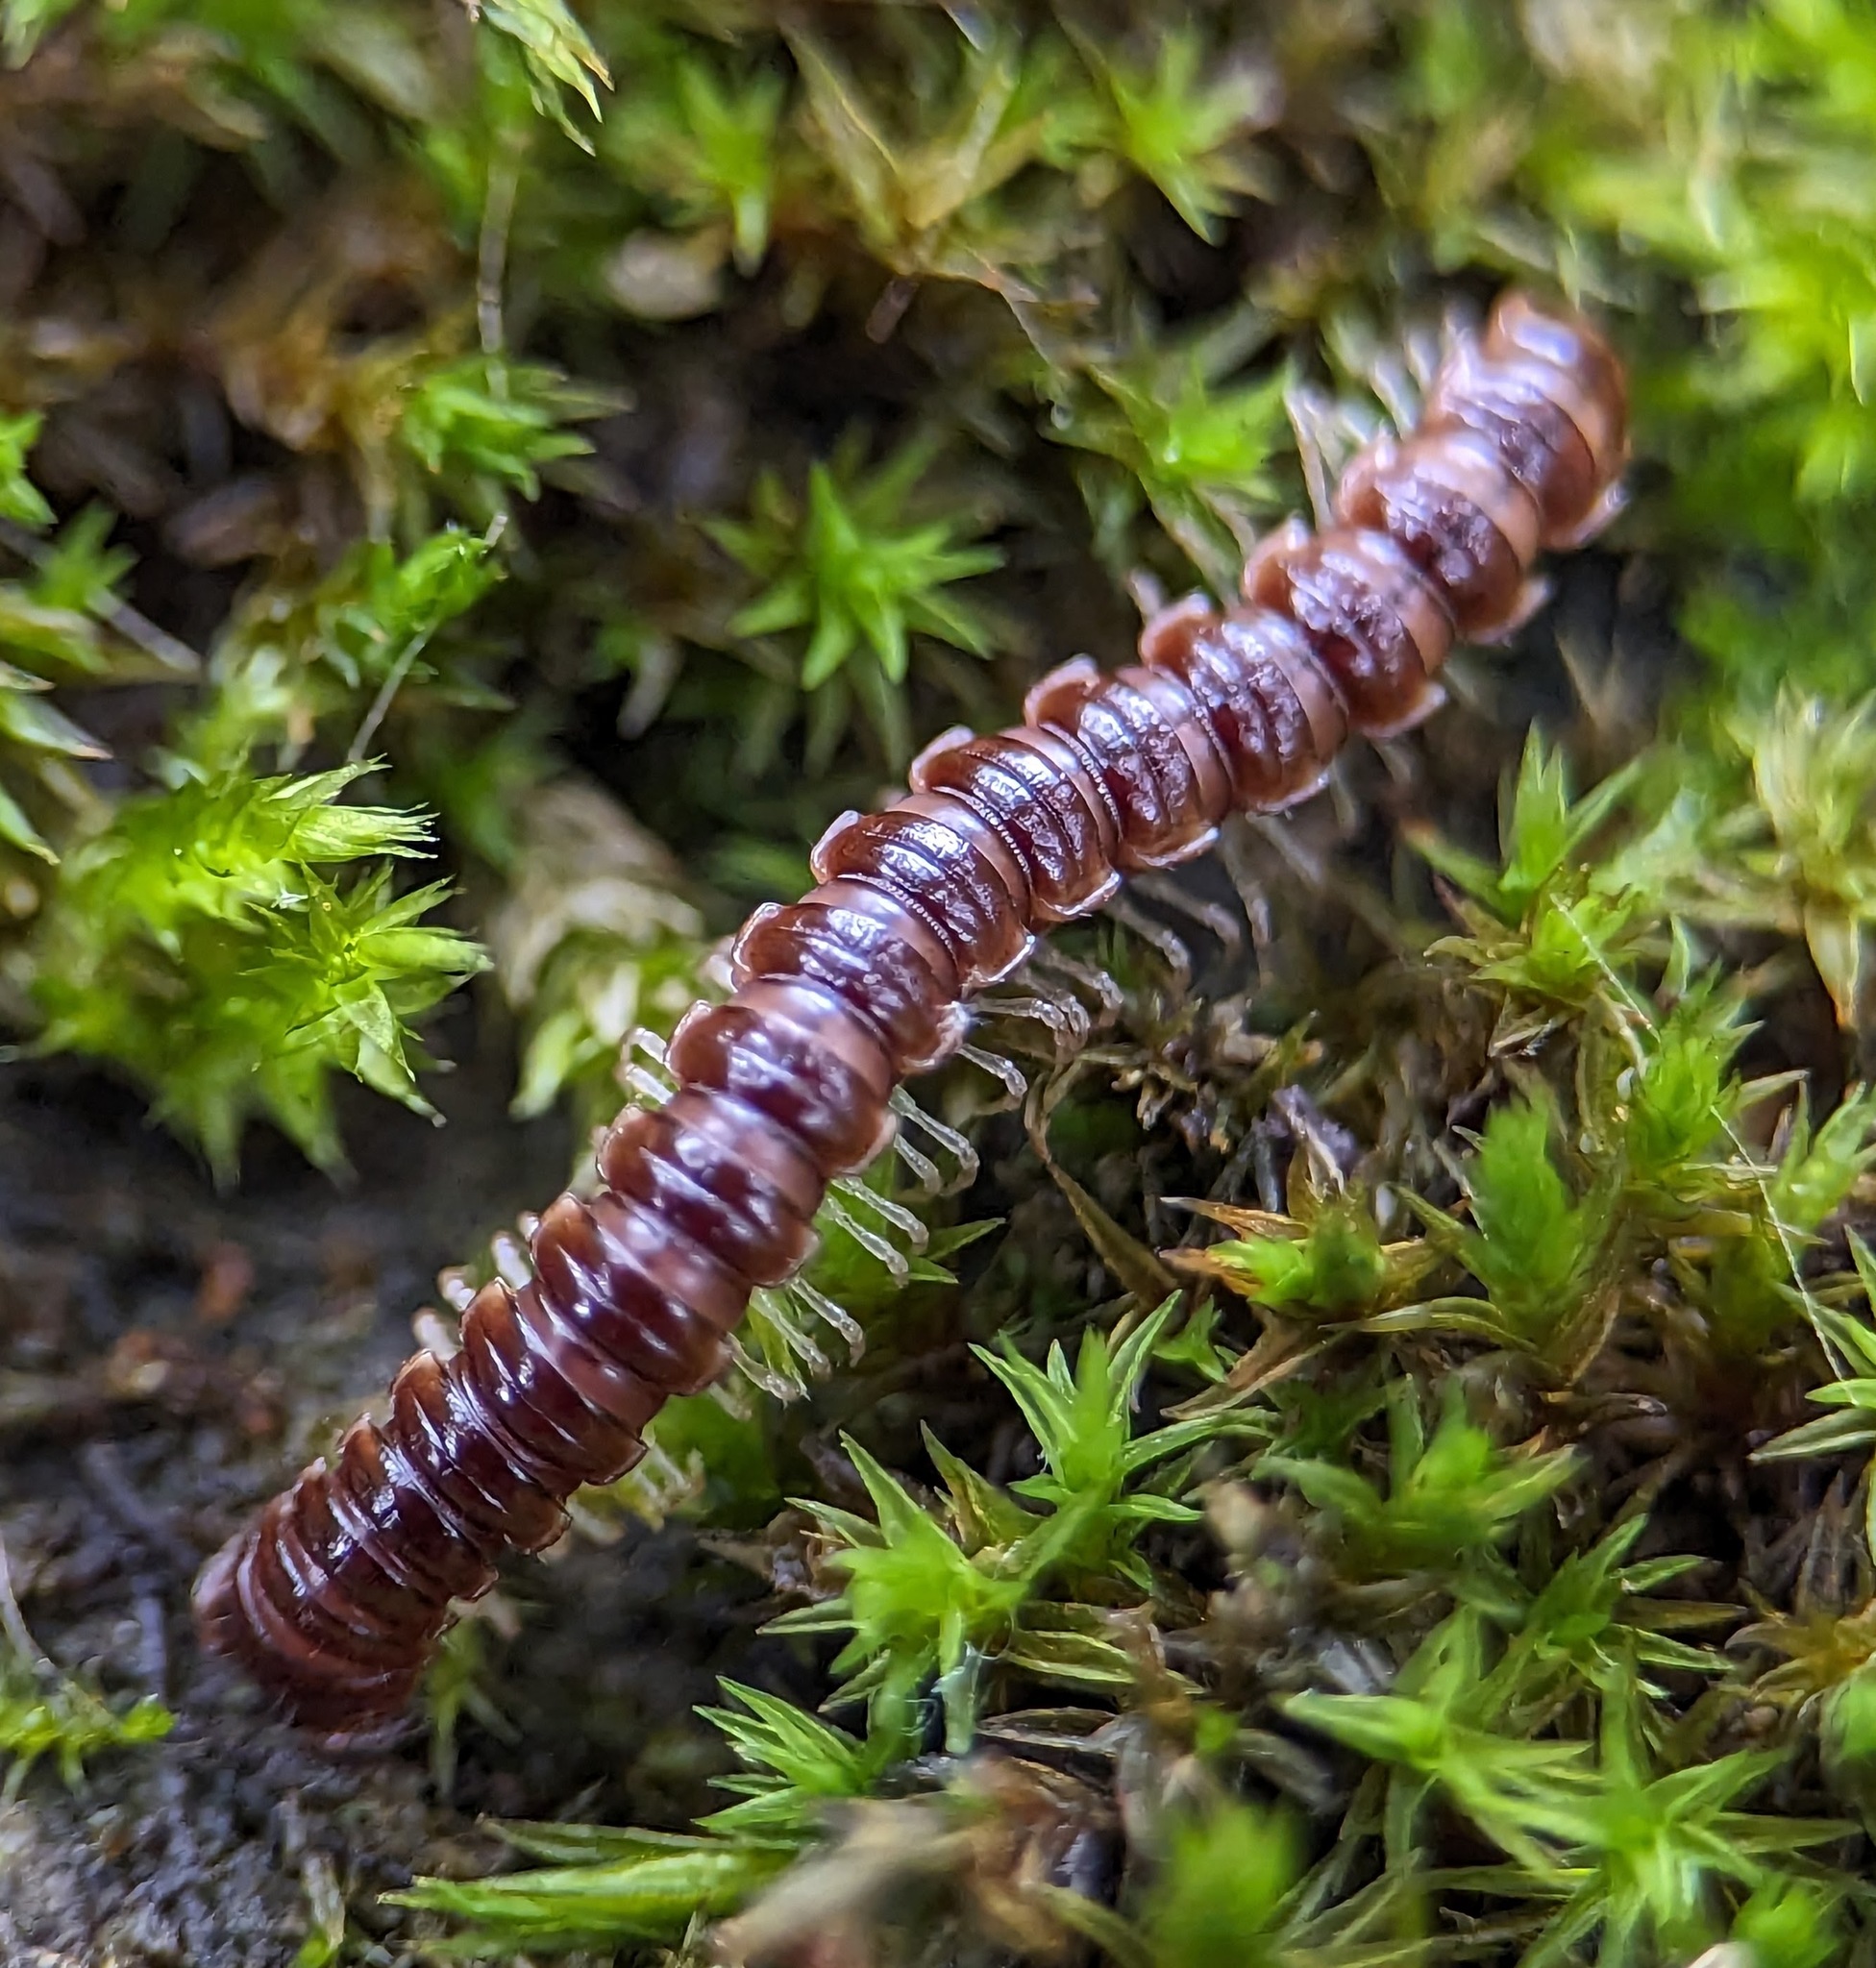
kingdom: Animalia
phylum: Arthropoda
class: Diplopoda
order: Polydesmida
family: Paradoxosomatidae
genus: Oxidus
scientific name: Oxidus gracilis
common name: Greenhouse millipede
